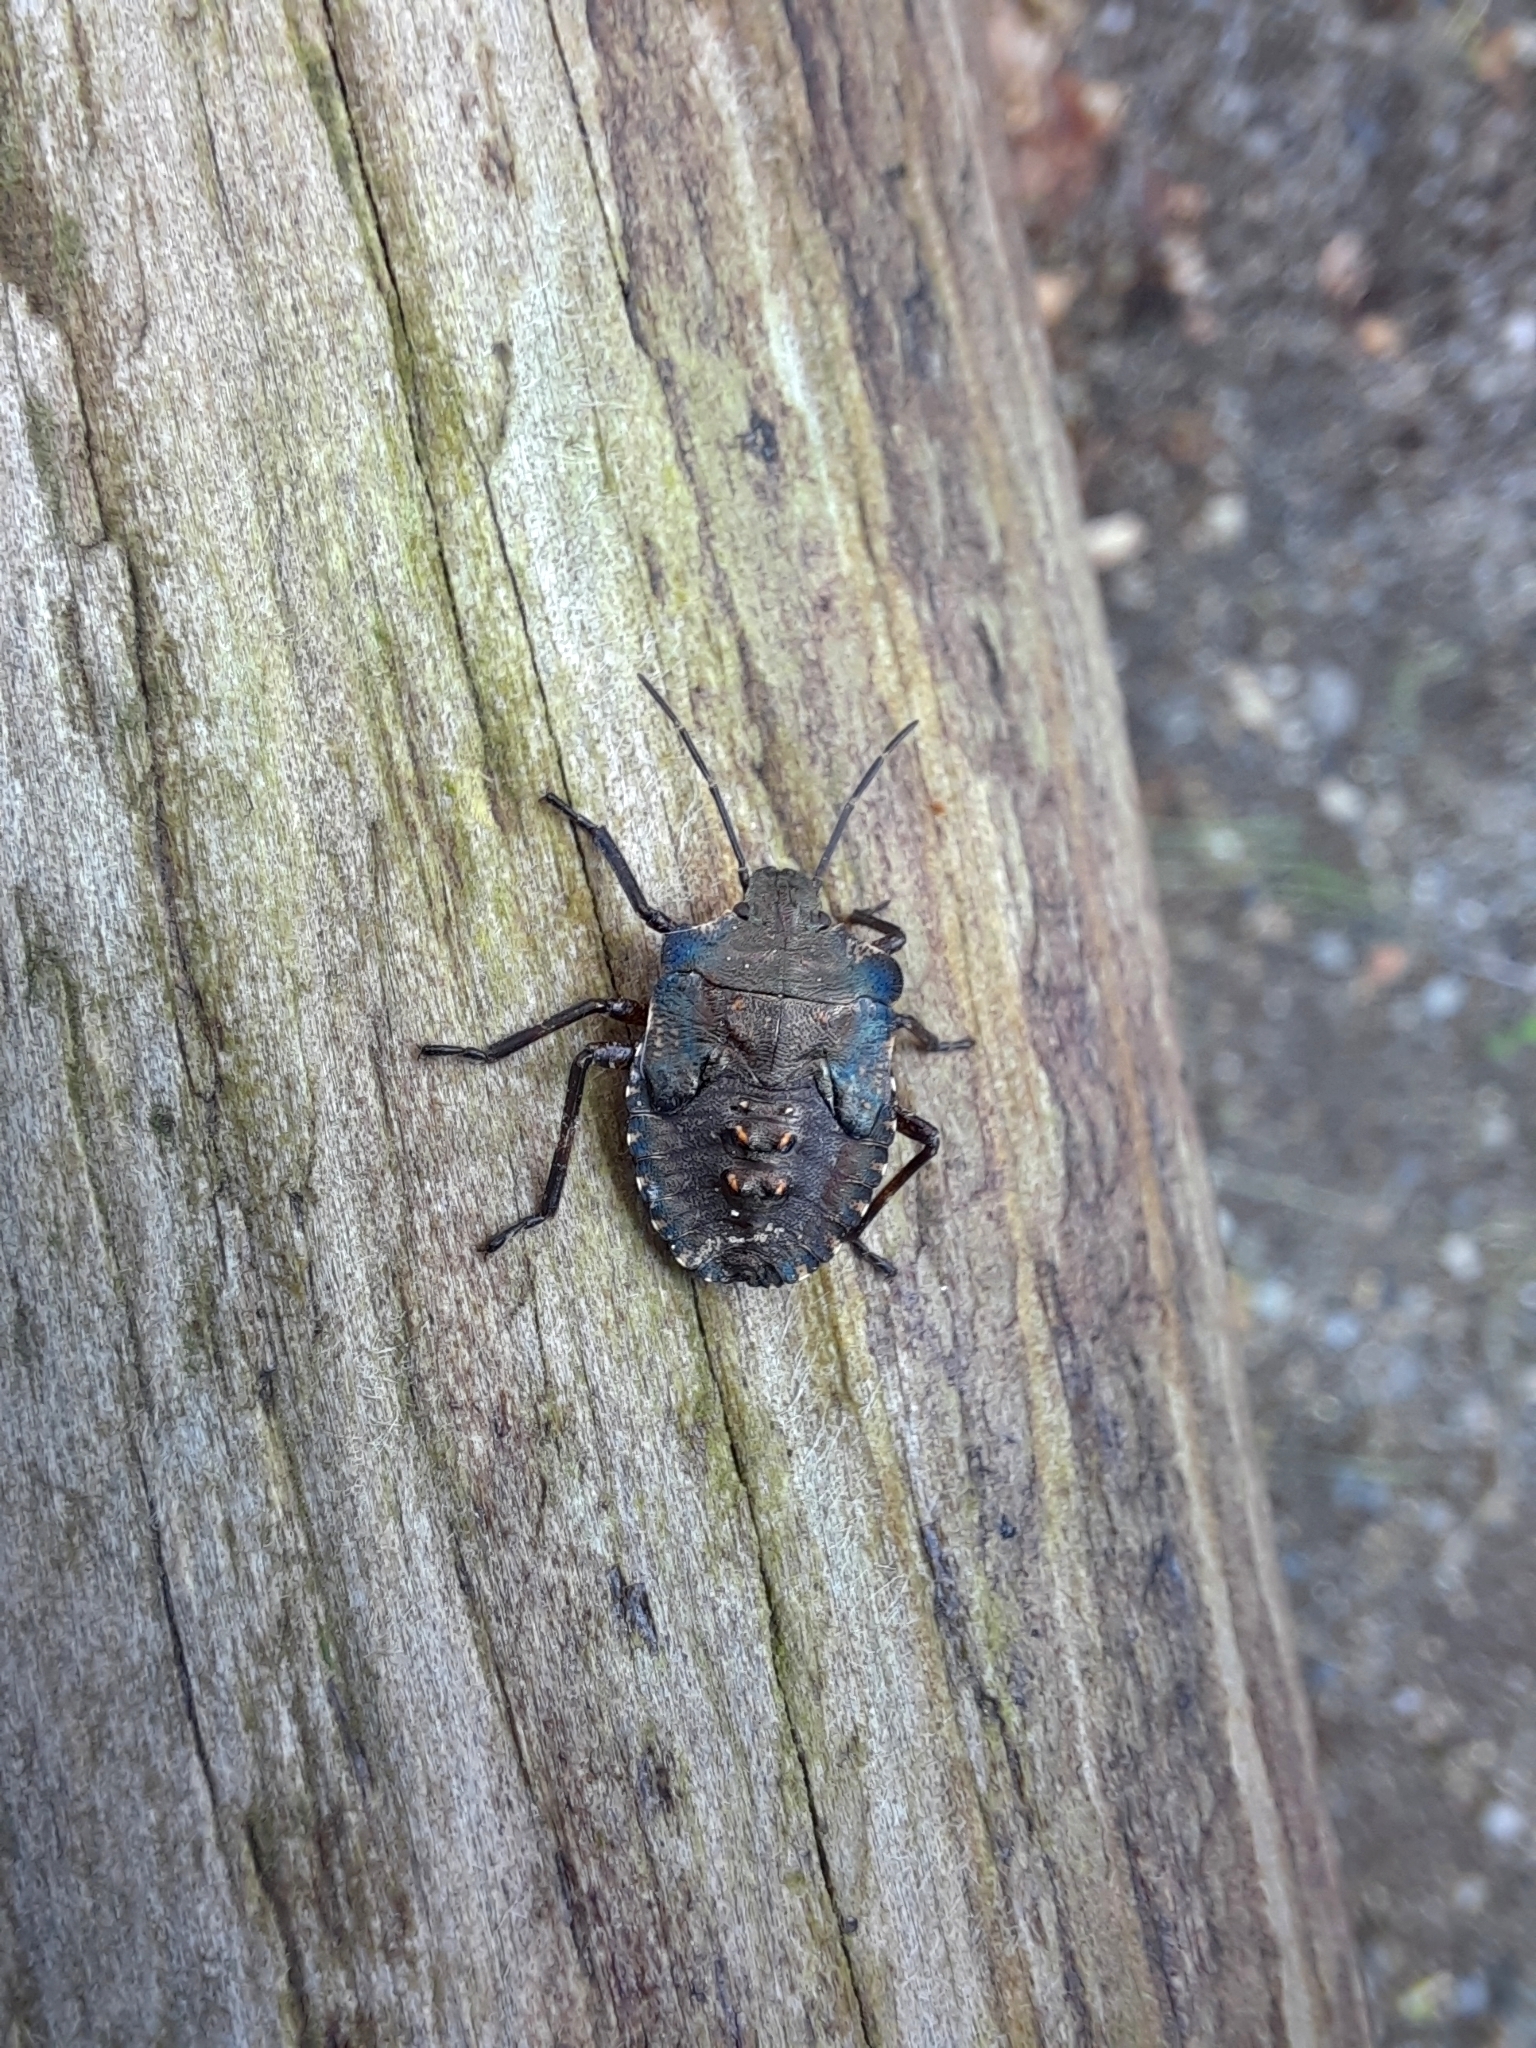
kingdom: Animalia
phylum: Arthropoda
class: Insecta
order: Hemiptera
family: Pentatomidae
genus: Pentatoma
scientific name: Pentatoma rufipes
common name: Forest bug
